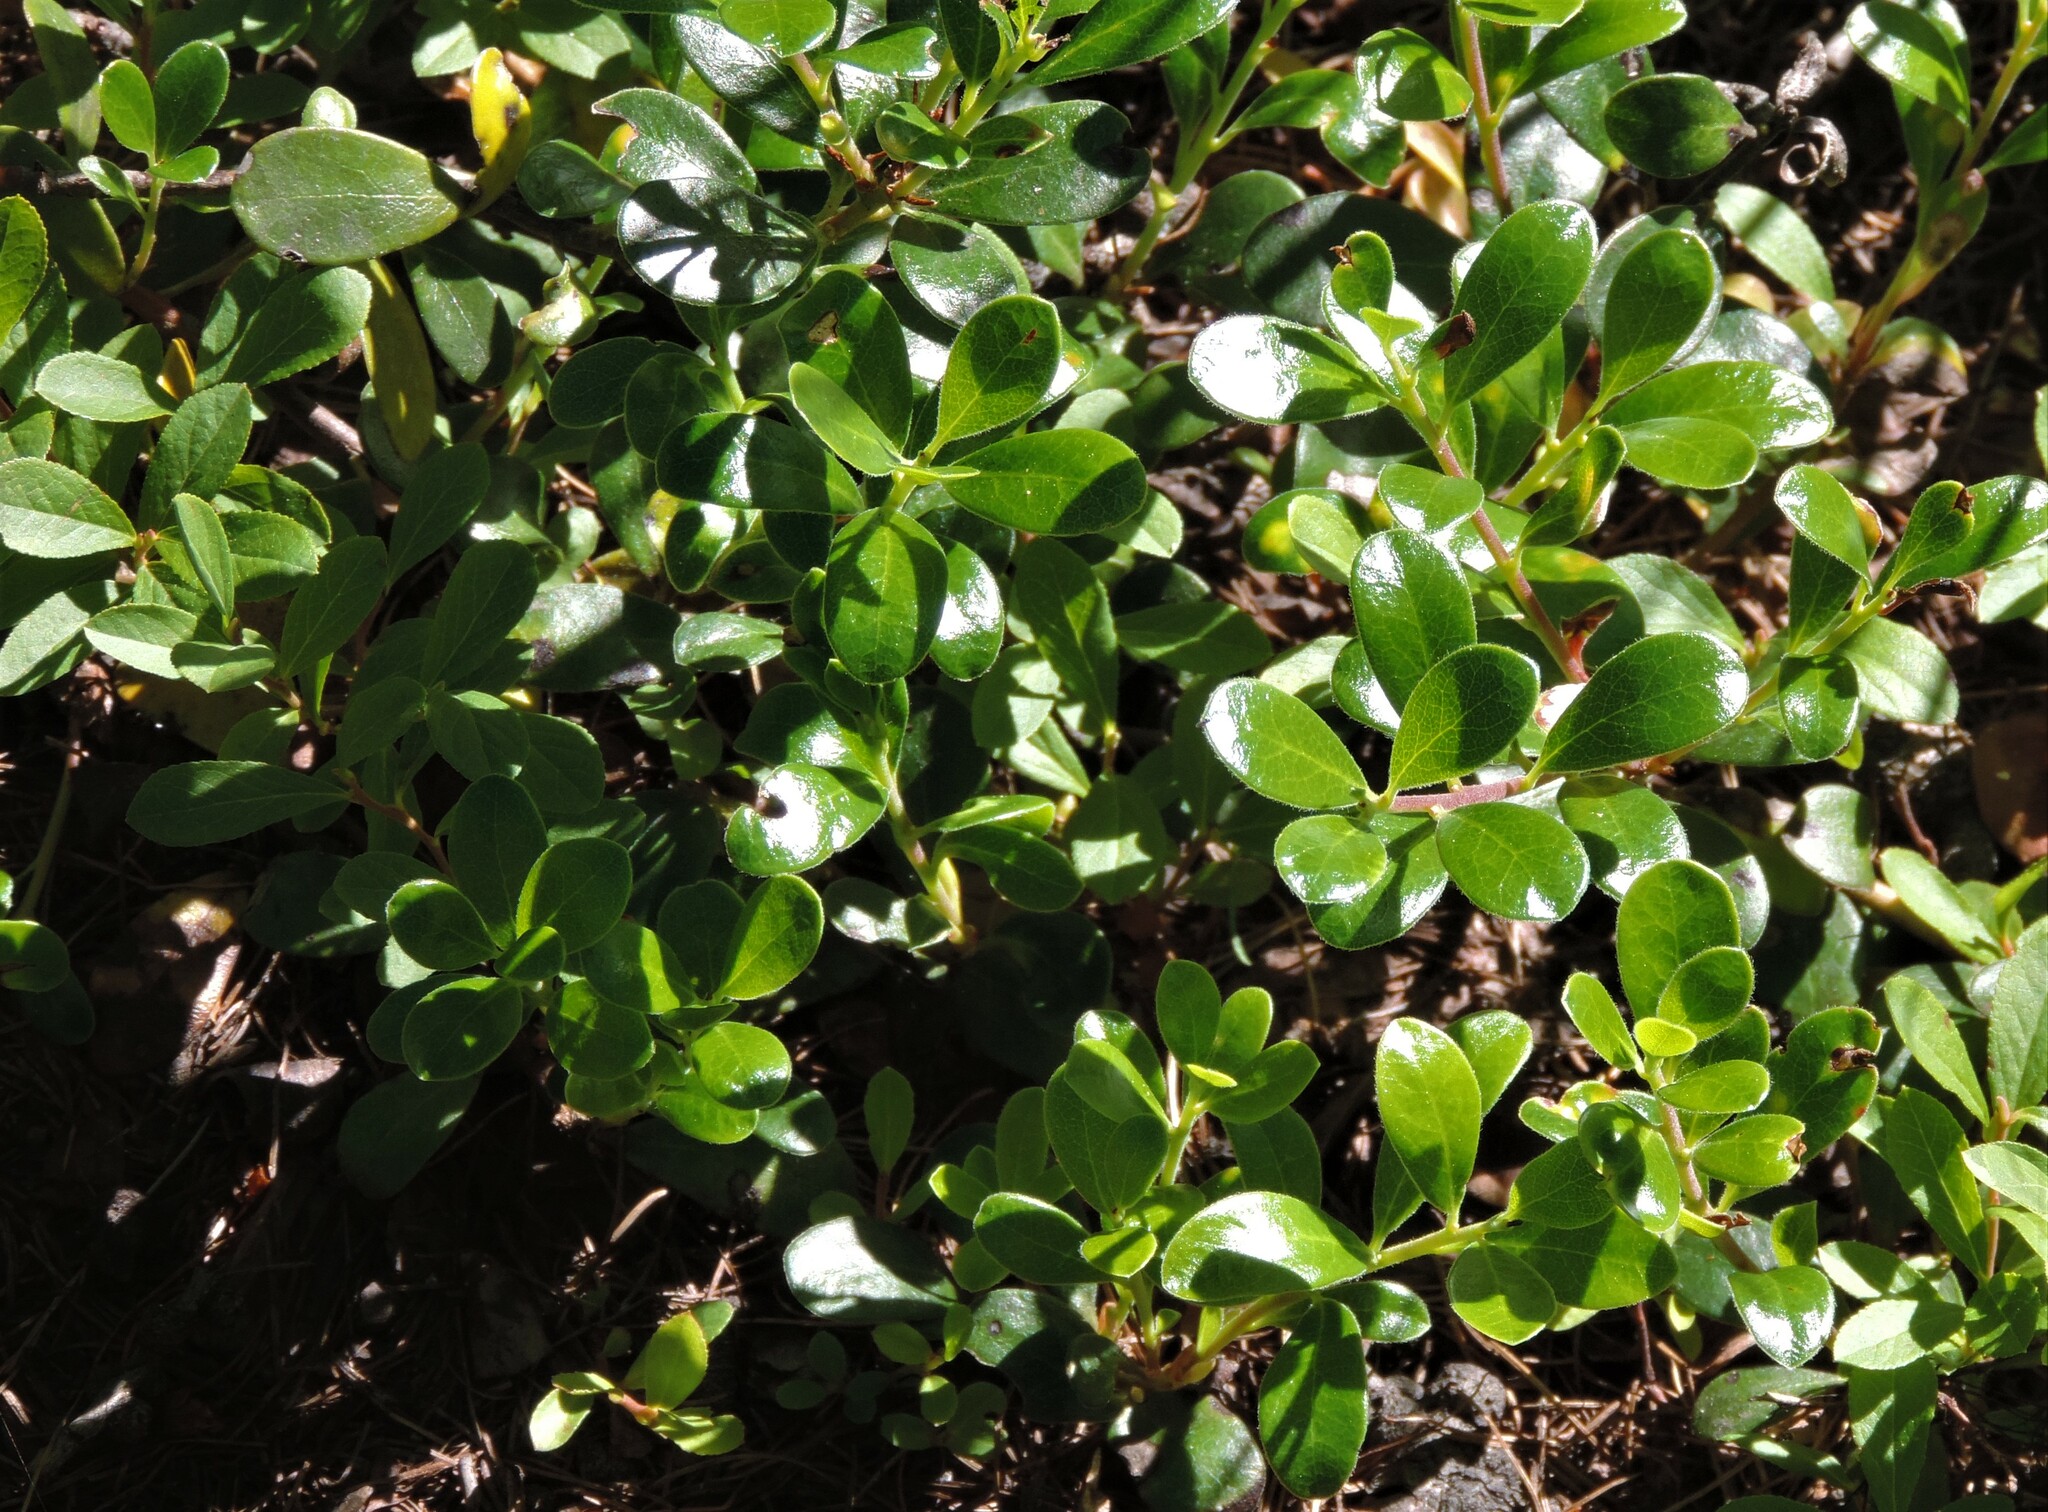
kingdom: Plantae
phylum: Tracheophyta
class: Magnoliopsida
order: Ericales
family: Ericaceae
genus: Arctostaphylos
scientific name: Arctostaphylos uva-ursi
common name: Bearberry
